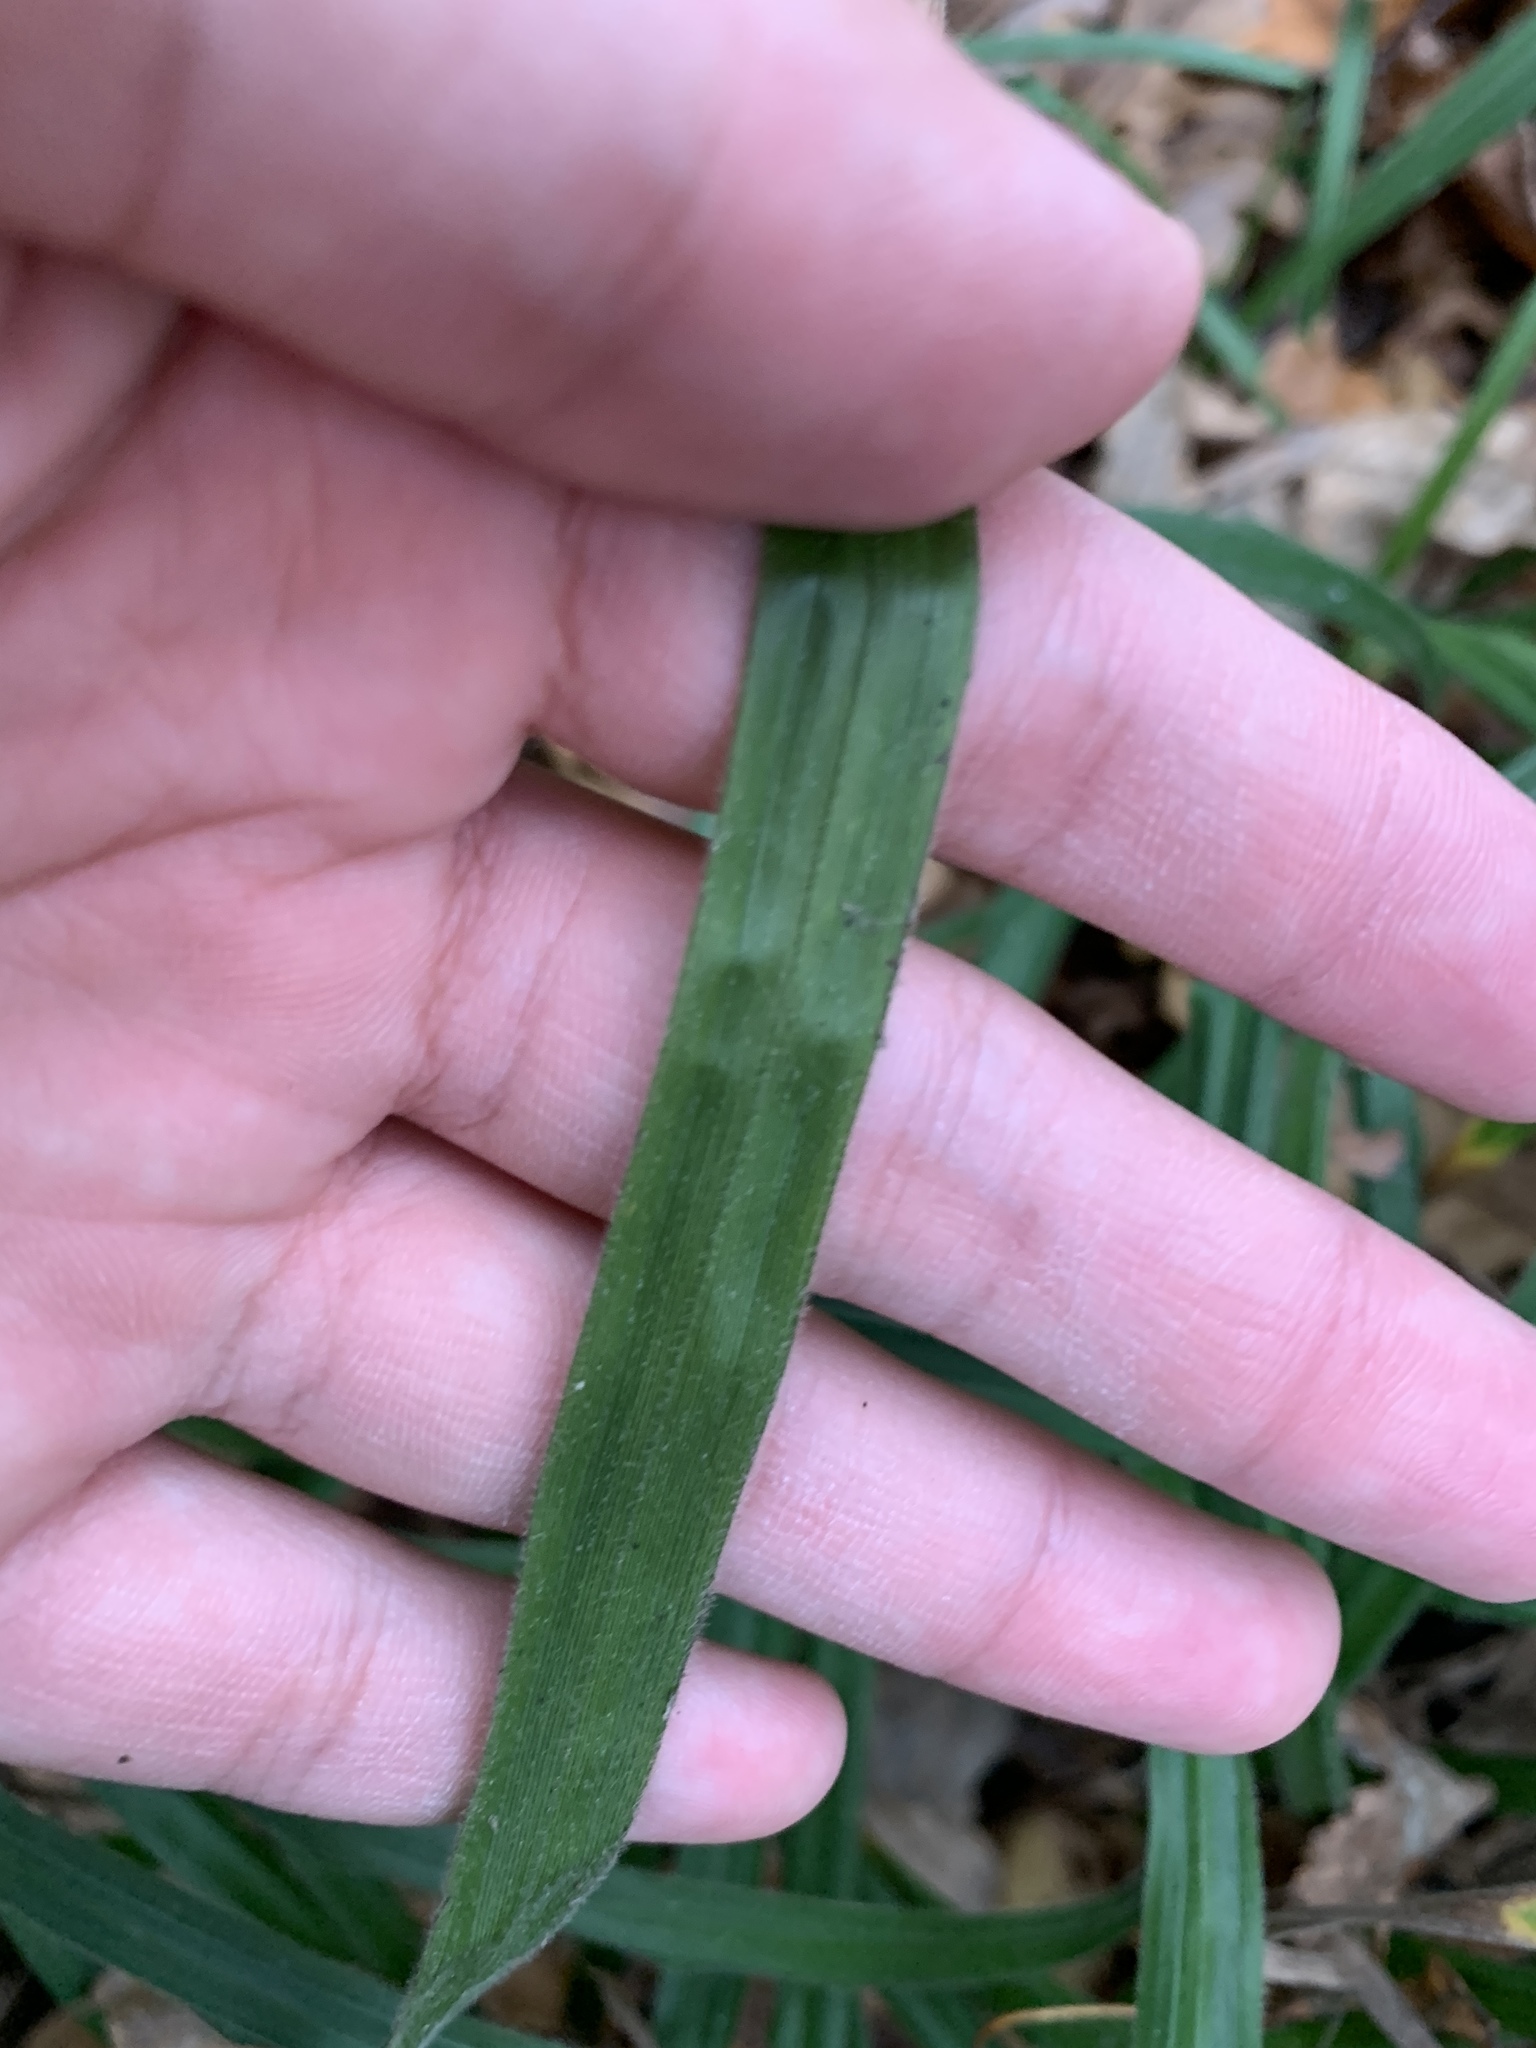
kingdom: Plantae
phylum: Tracheophyta
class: Liliopsida
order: Poales
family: Cyperaceae
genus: Carex
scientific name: Carex pilosa
